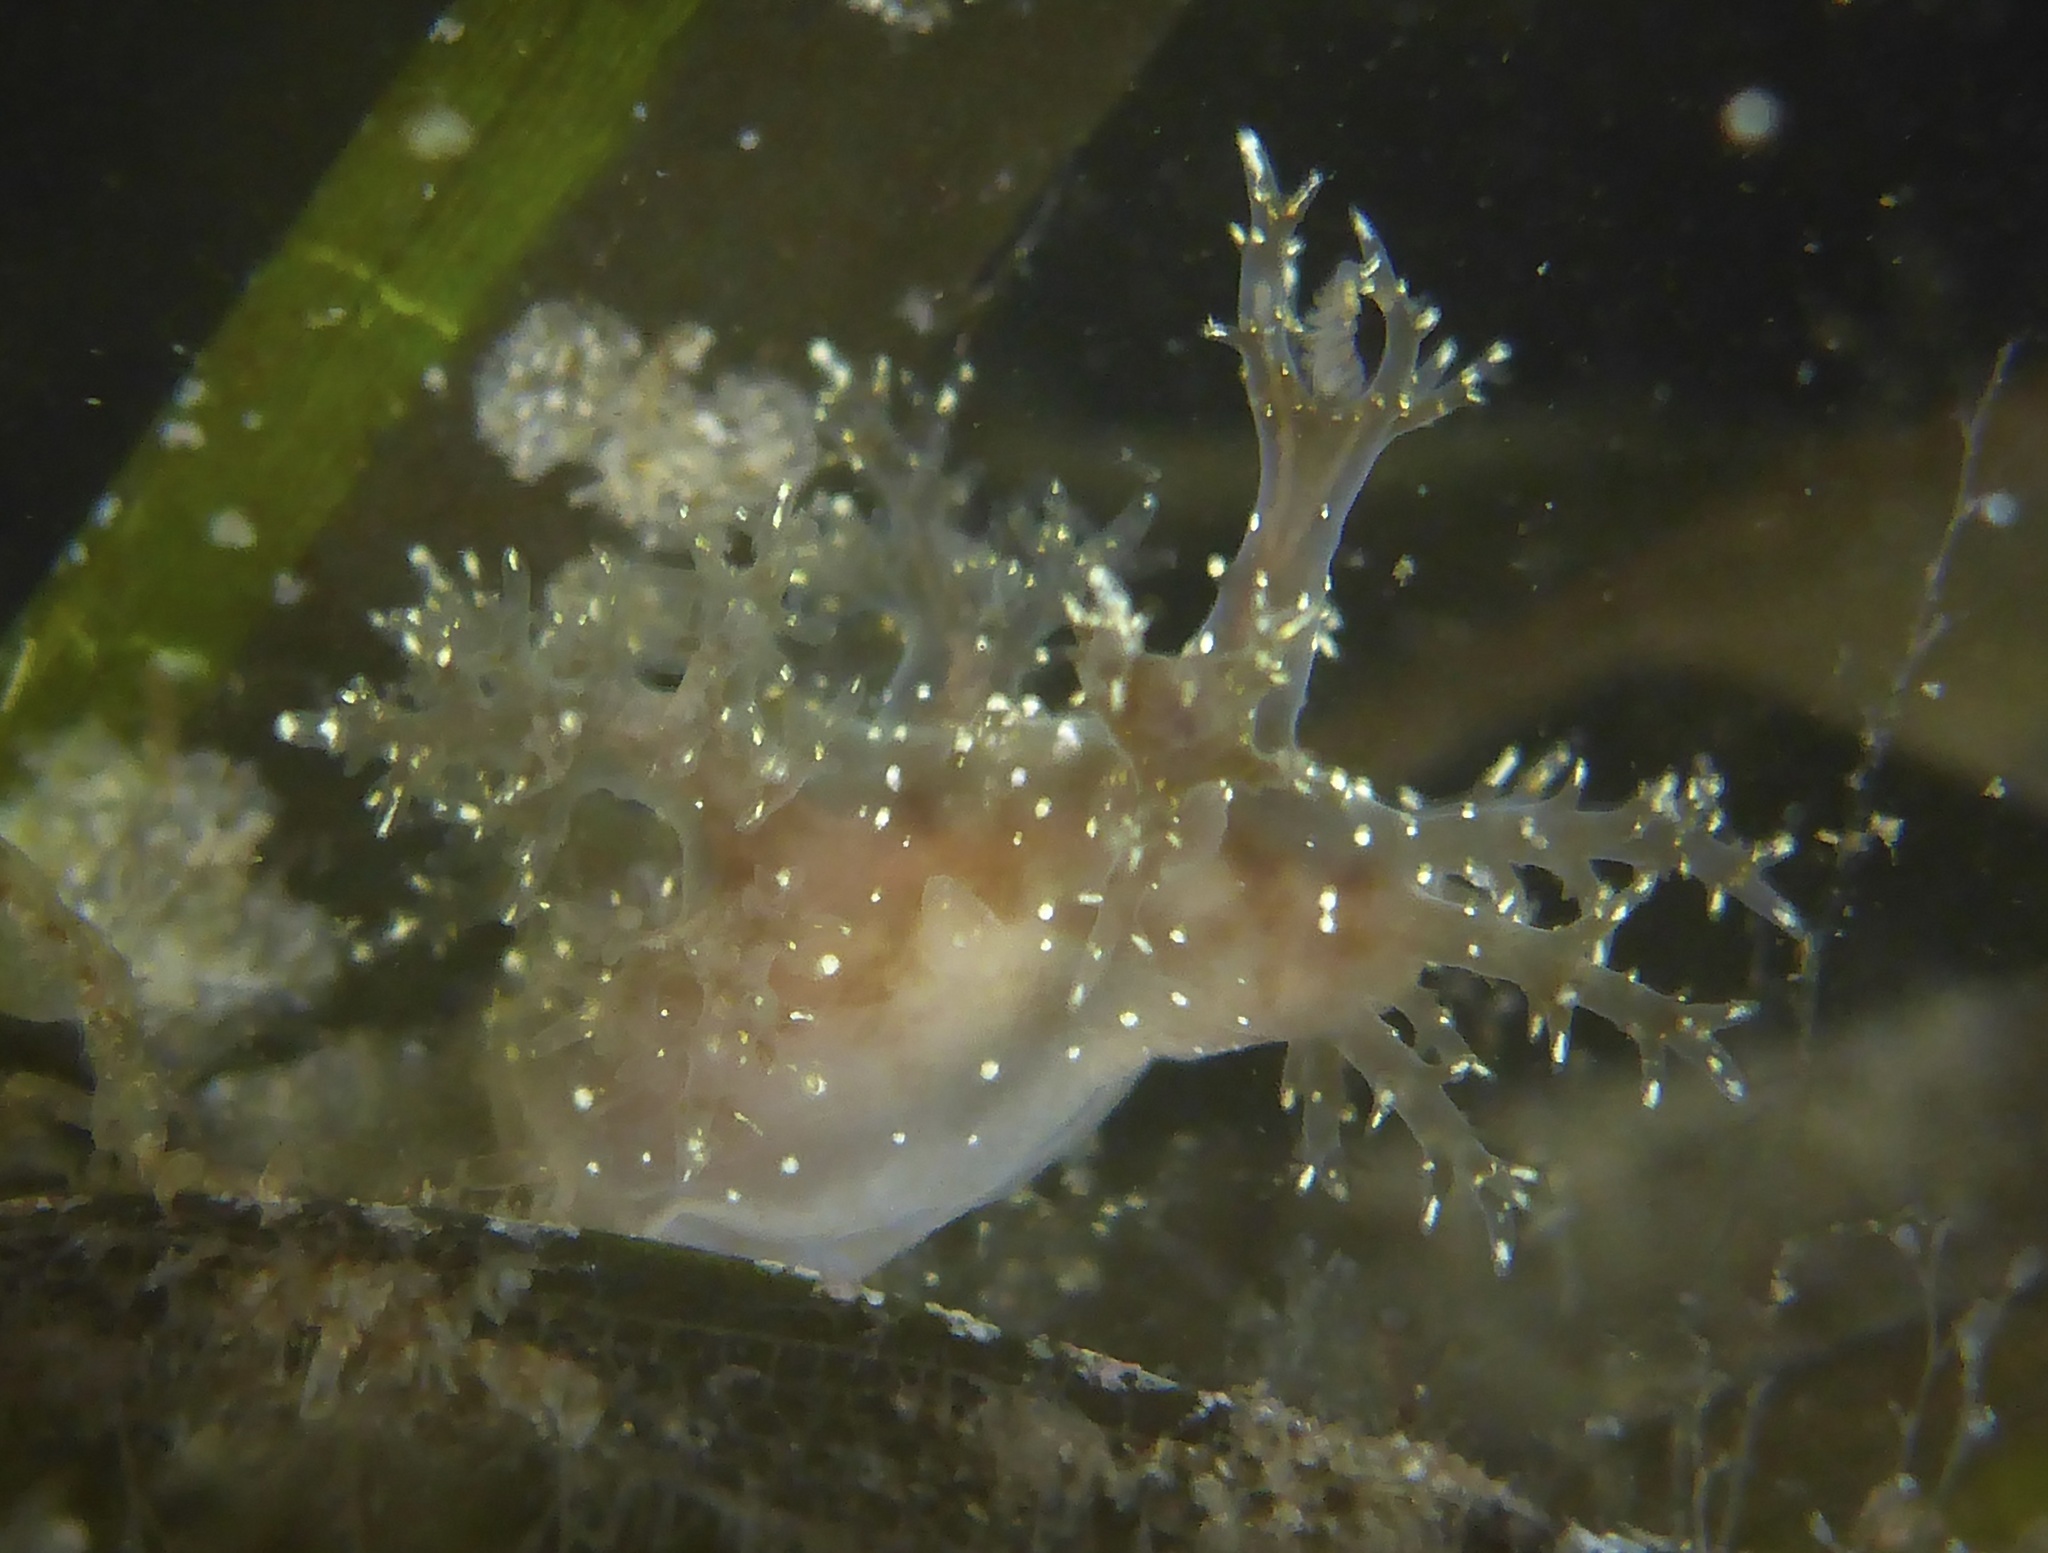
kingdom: Animalia
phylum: Mollusca
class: Gastropoda
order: Nudibranchia
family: Dendronotidae
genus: Dendronotus
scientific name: Dendronotus venustus
